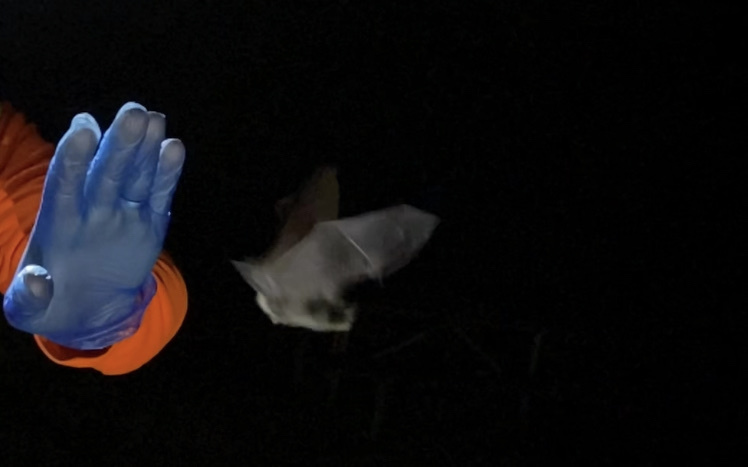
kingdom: Animalia
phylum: Chordata
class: Mammalia
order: Chiroptera
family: Vespertilionidae
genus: Myotis
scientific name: Myotis lucifugus
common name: Little brown bat
